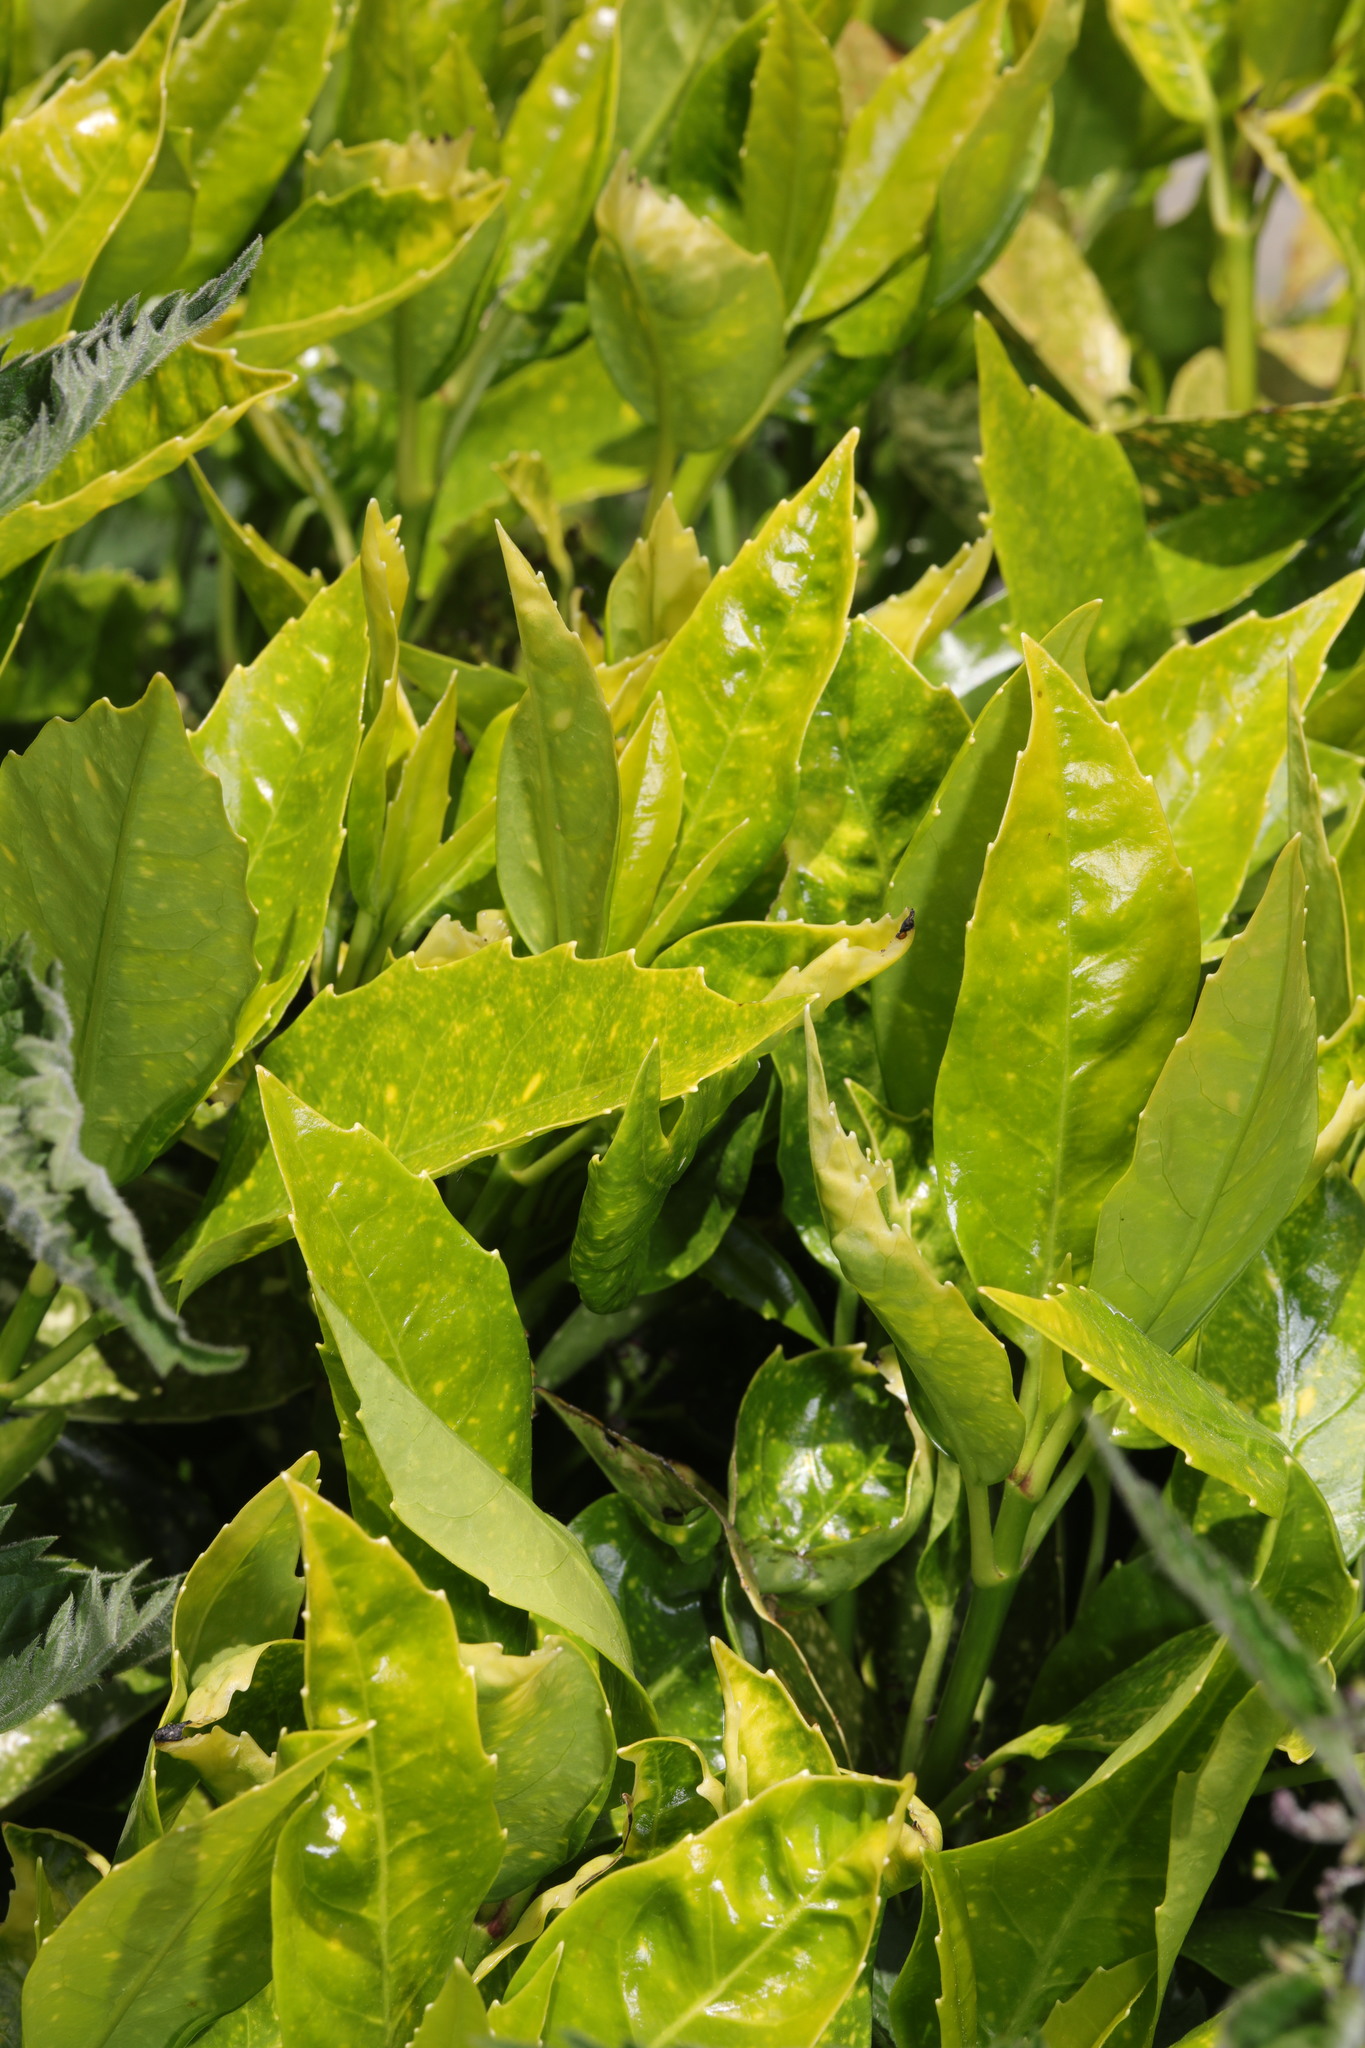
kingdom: Plantae
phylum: Tracheophyta
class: Magnoliopsida
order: Garryales
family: Garryaceae
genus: Aucuba
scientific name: Aucuba japonica
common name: Spotted-laurel
